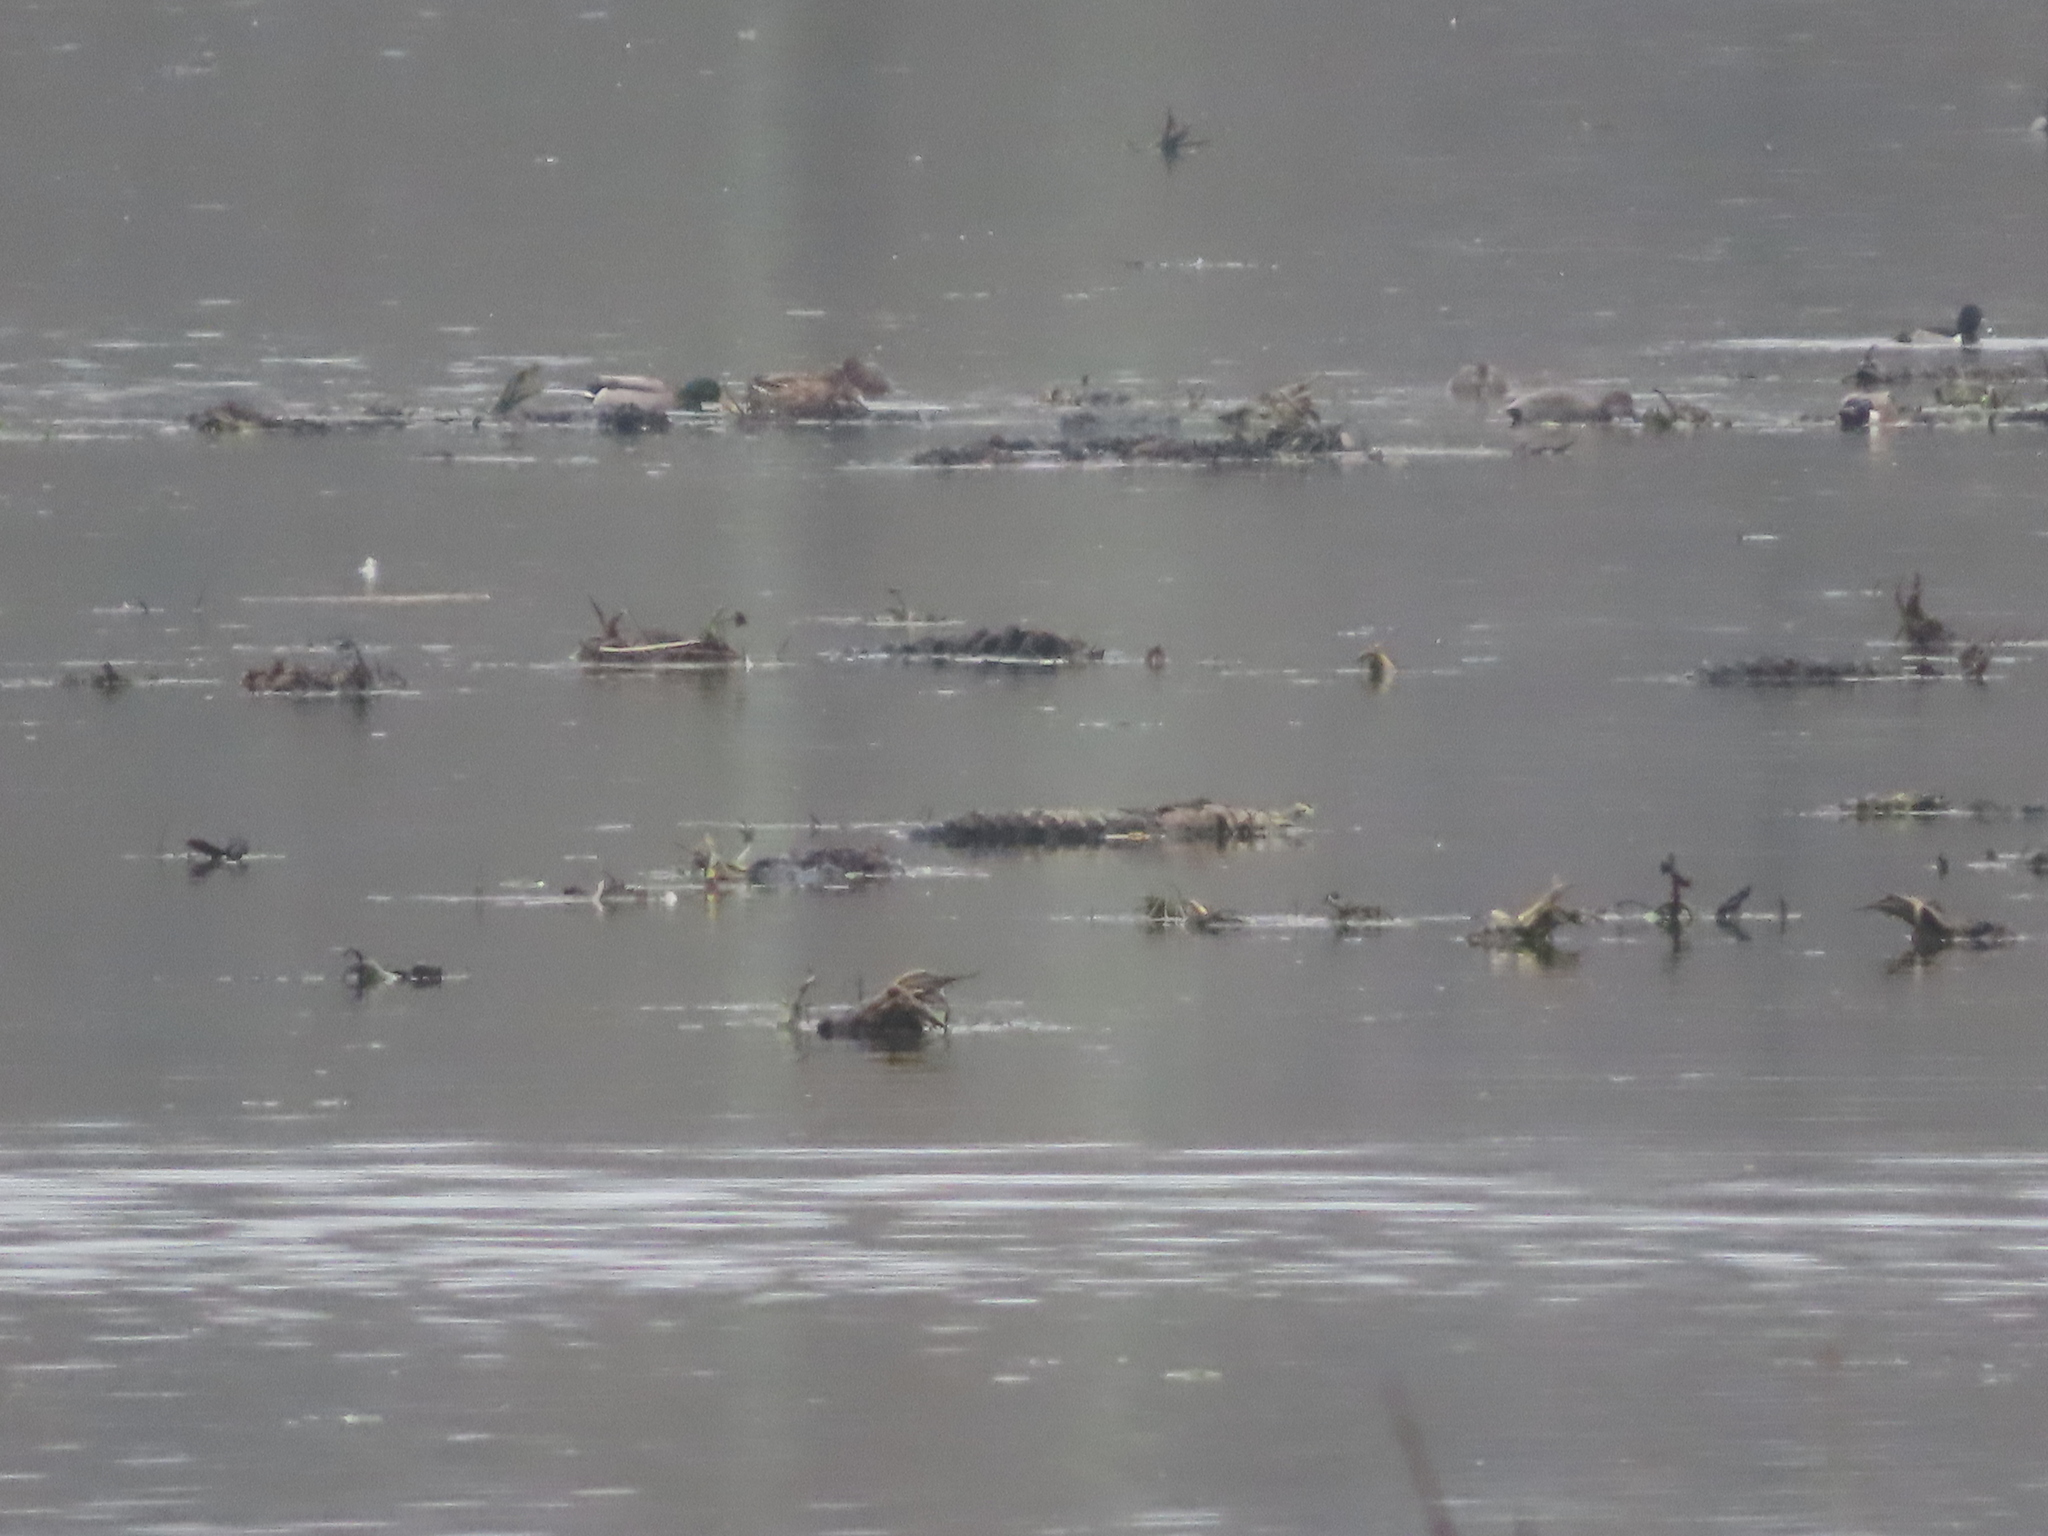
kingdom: Animalia
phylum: Chordata
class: Aves
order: Anseriformes
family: Anatidae
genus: Anas
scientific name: Anas platyrhynchos
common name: Mallard
